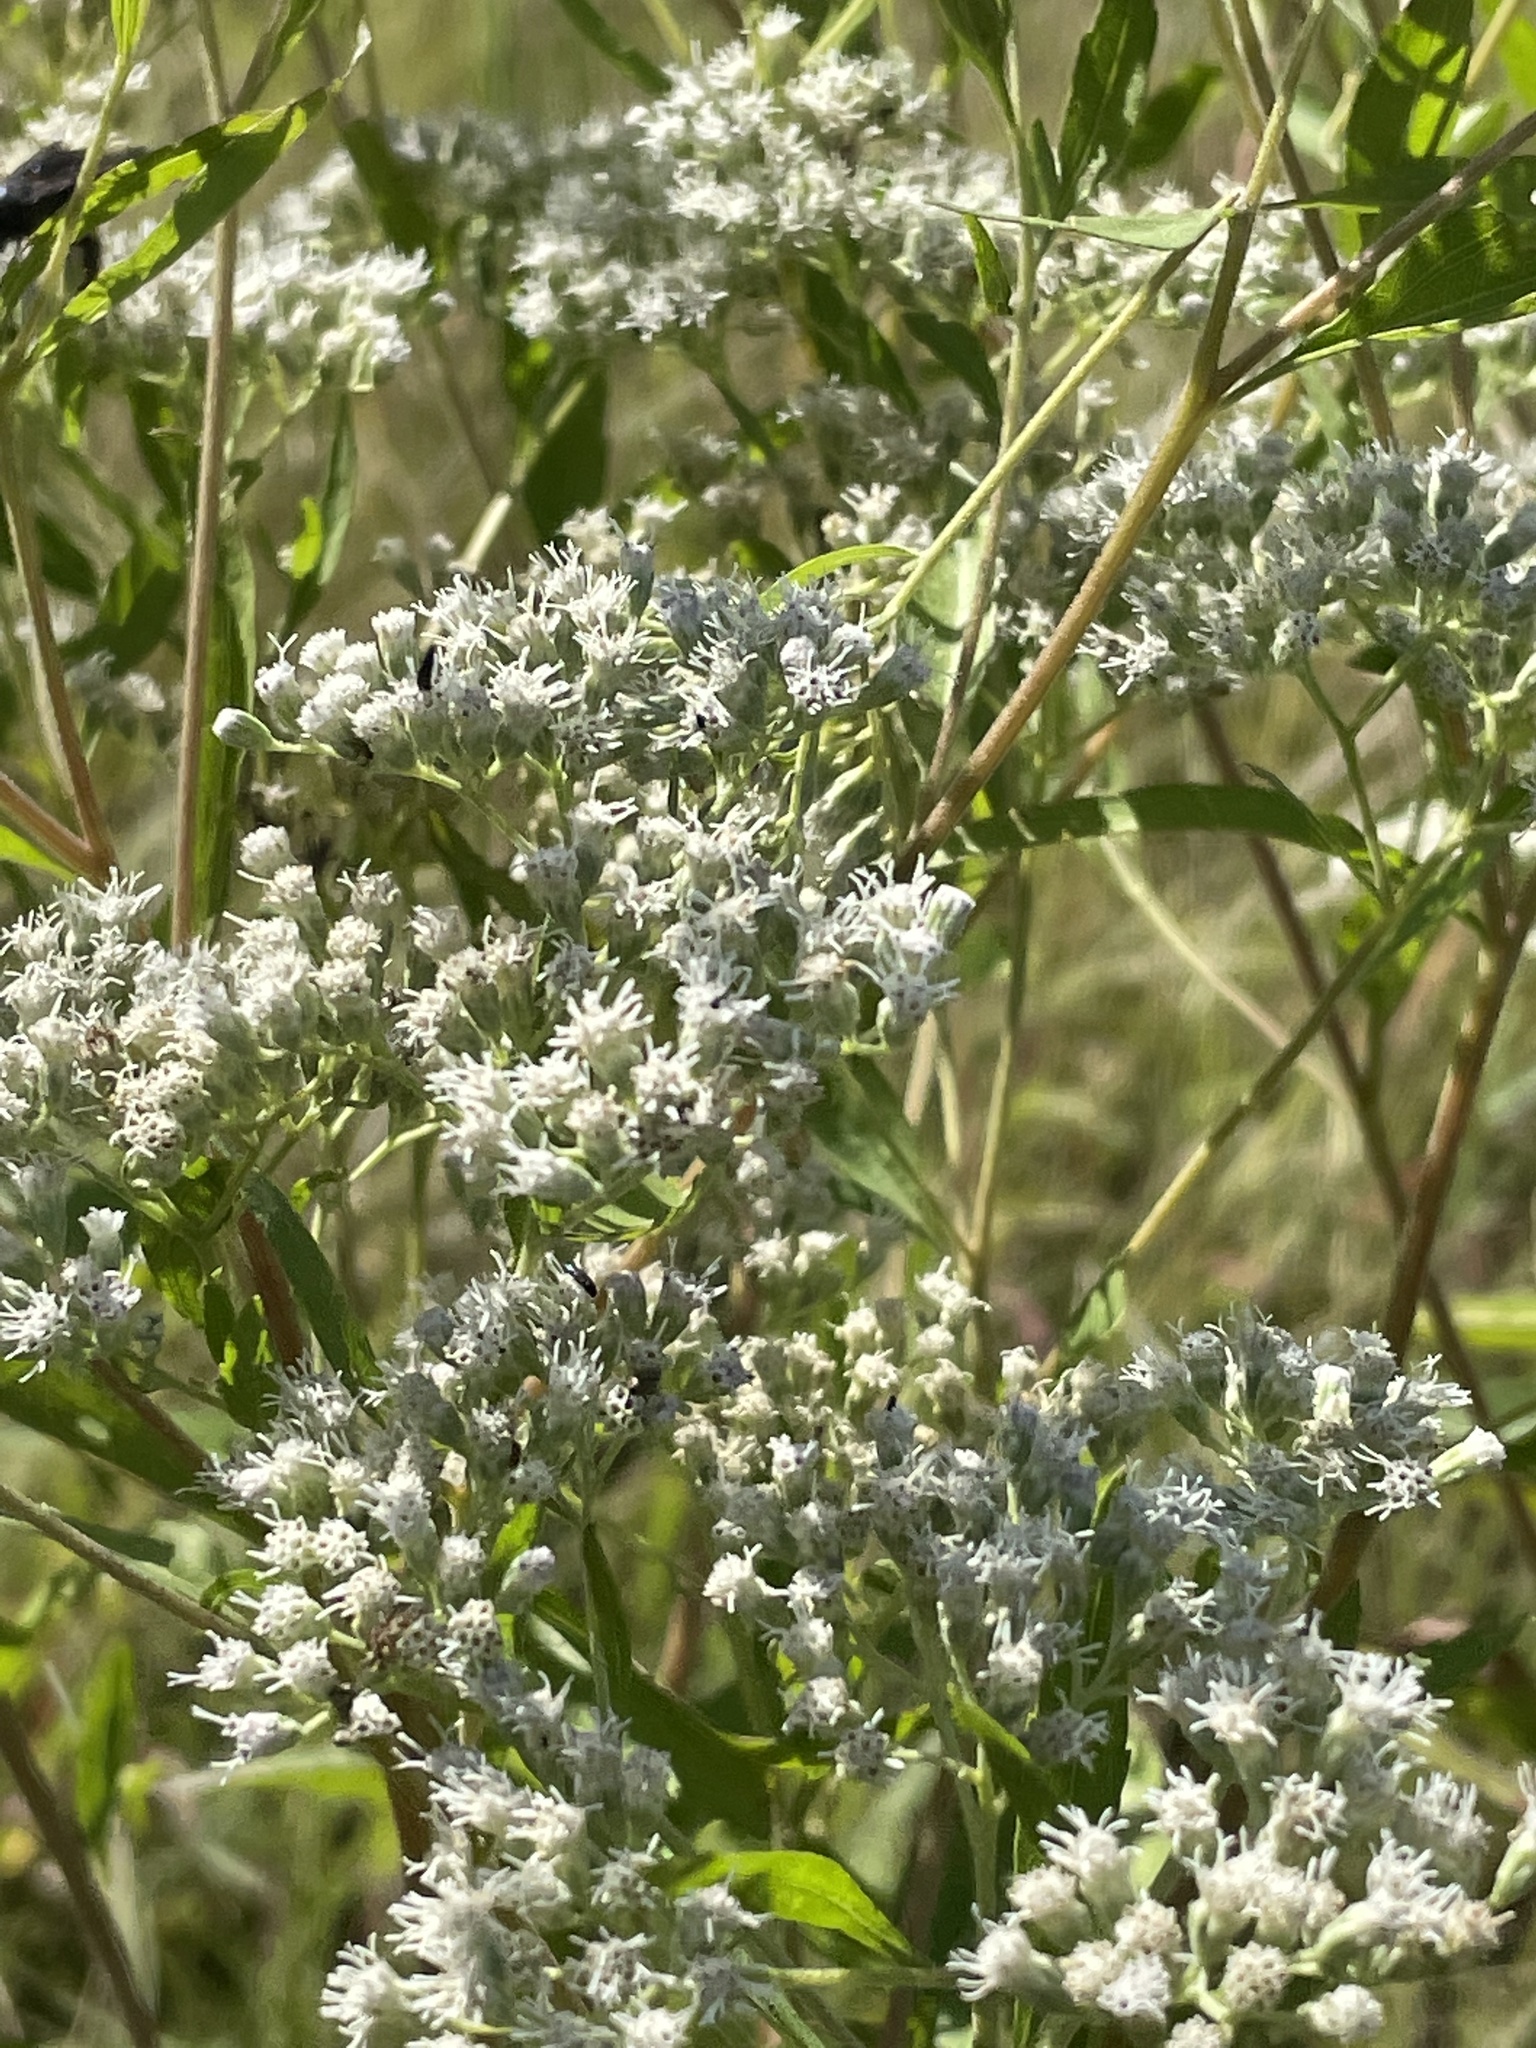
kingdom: Plantae
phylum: Tracheophyta
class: Magnoliopsida
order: Asterales
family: Asteraceae
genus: Eupatorium
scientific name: Eupatorium serotinum
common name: Late boneset
